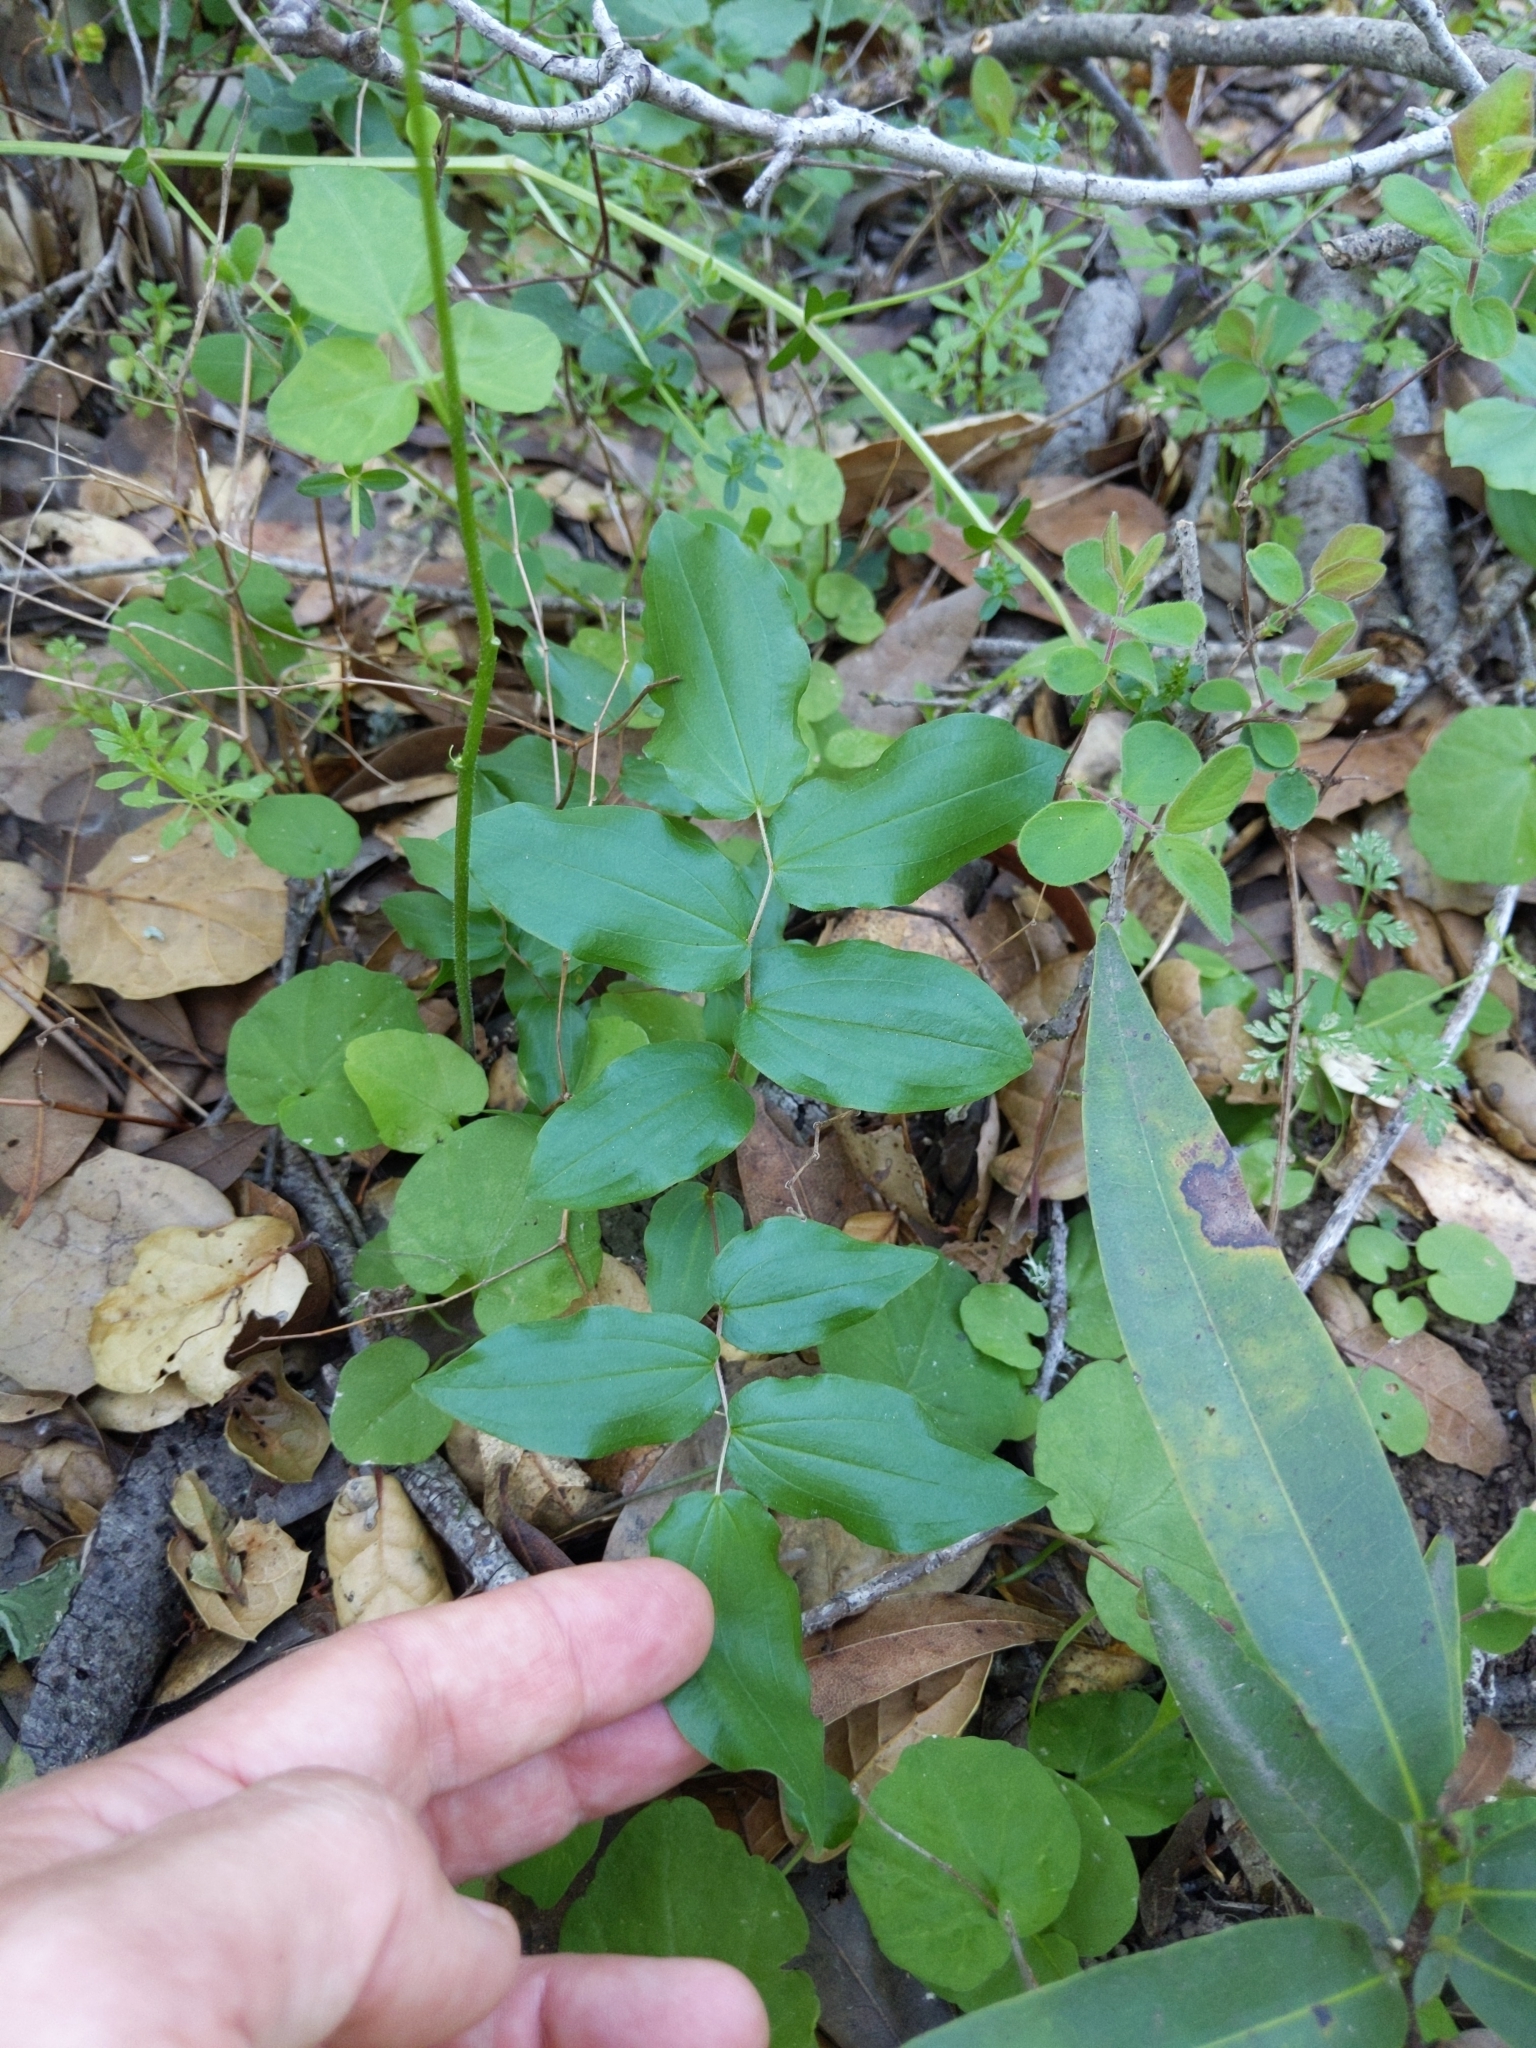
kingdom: Plantae
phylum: Tracheophyta
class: Liliopsida
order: Liliales
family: Liliaceae
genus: Prosartes
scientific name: Prosartes hookeri
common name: Fairy-bells
